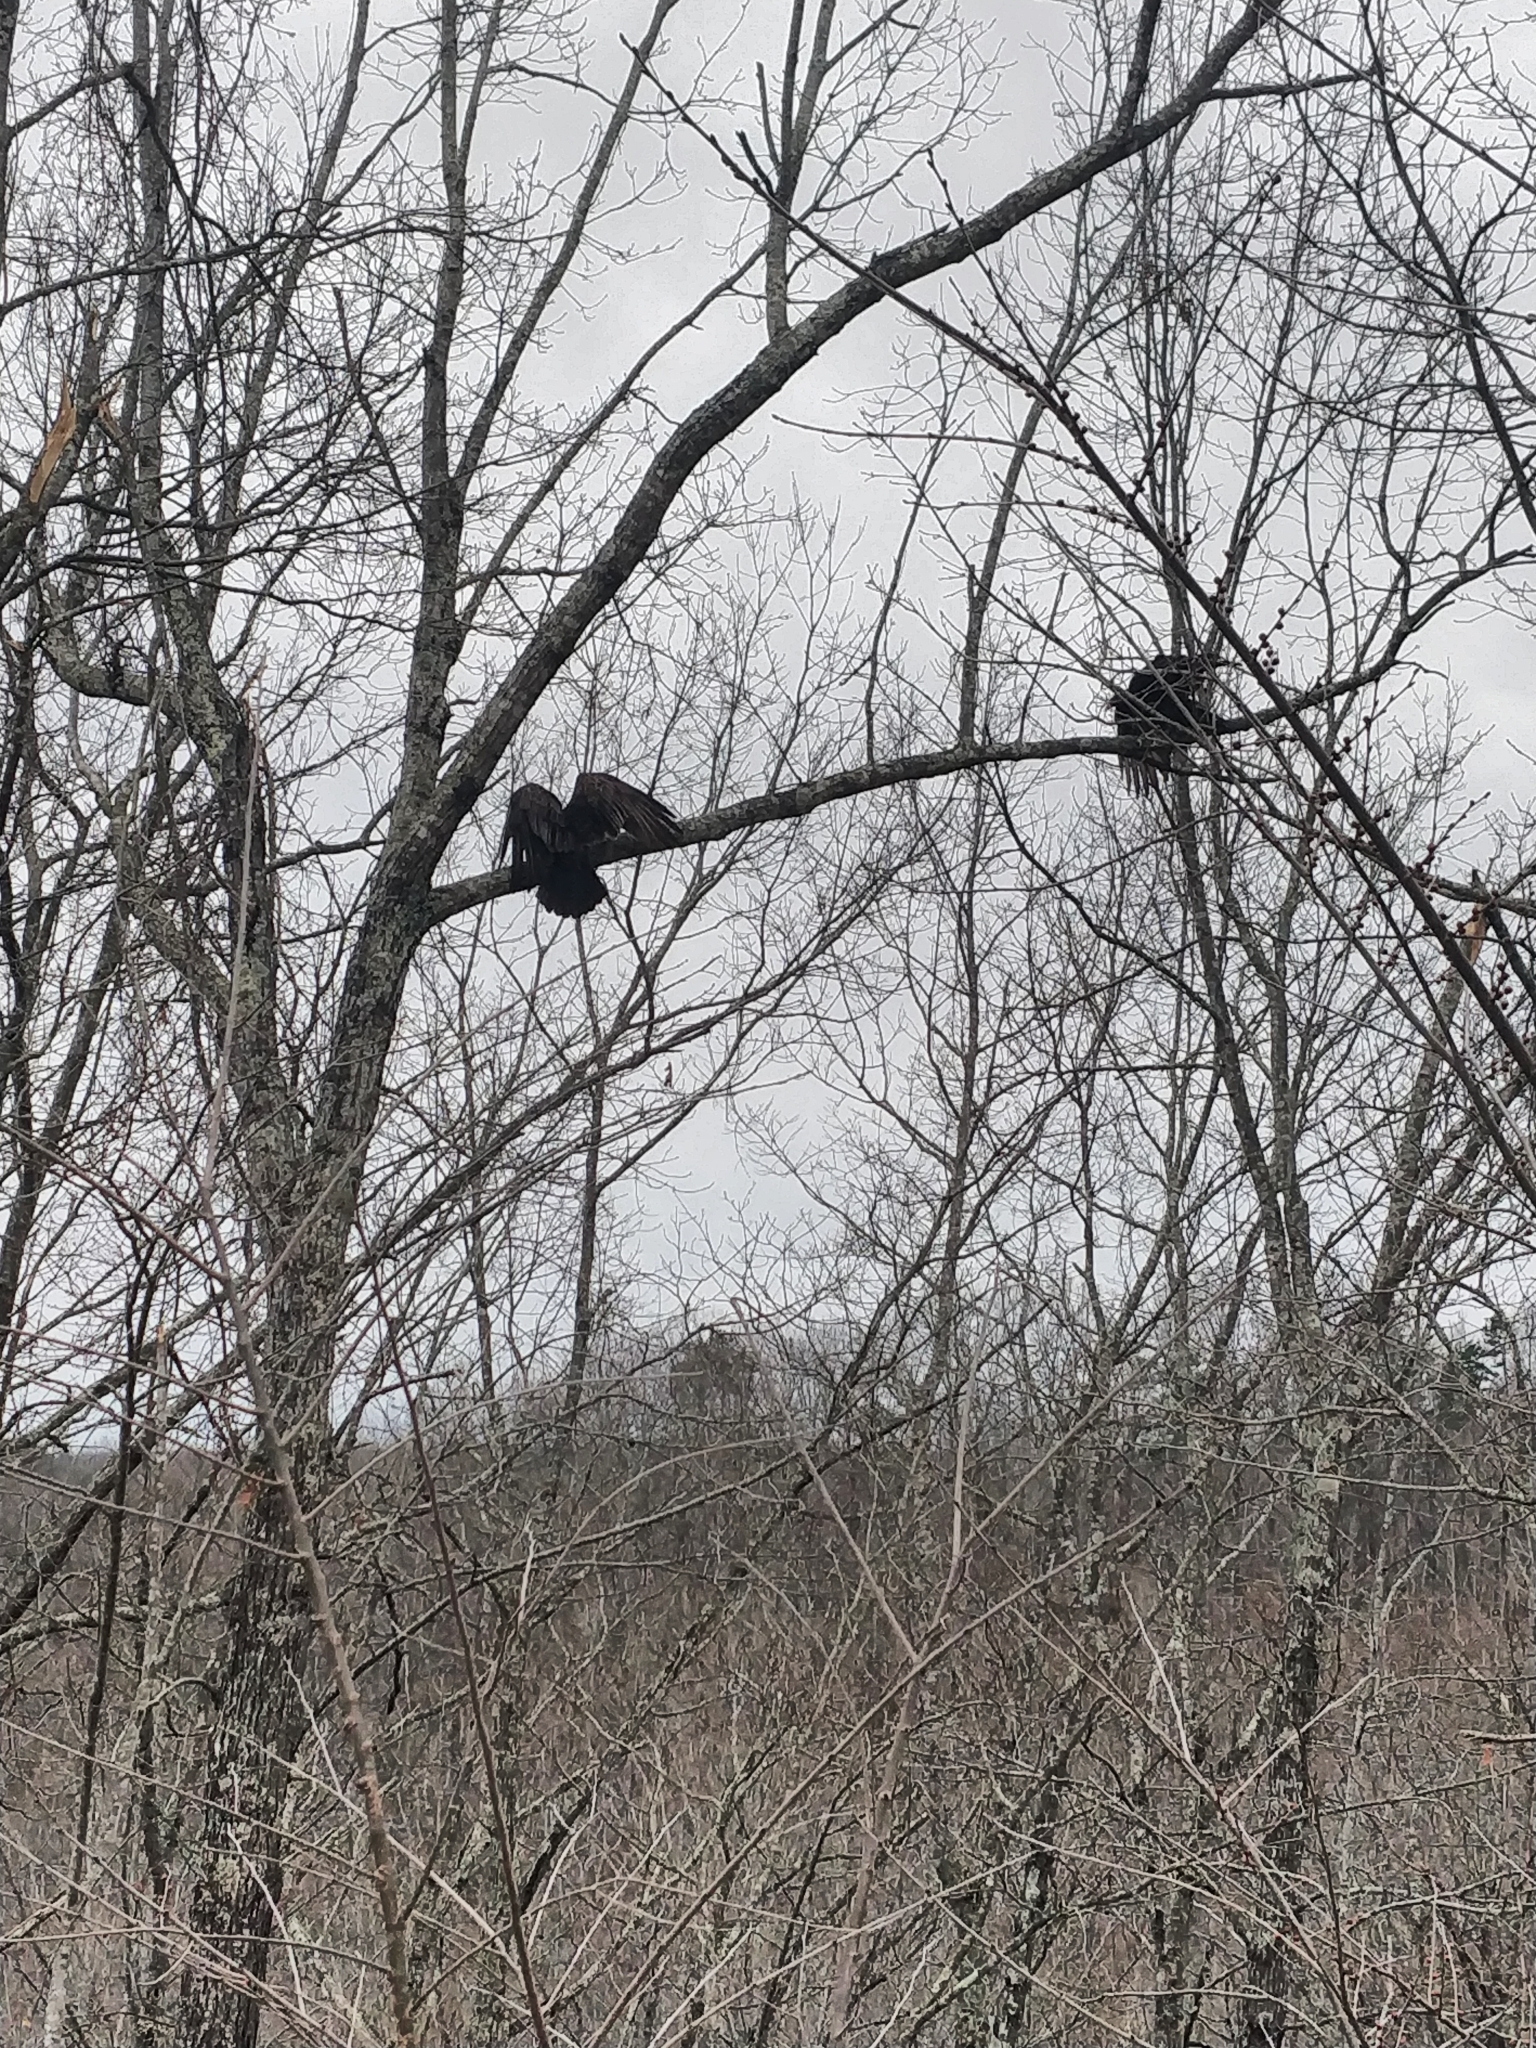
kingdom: Animalia
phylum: Chordata
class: Aves
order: Accipitriformes
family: Cathartidae
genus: Cathartes
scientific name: Cathartes aura
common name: Turkey vulture
